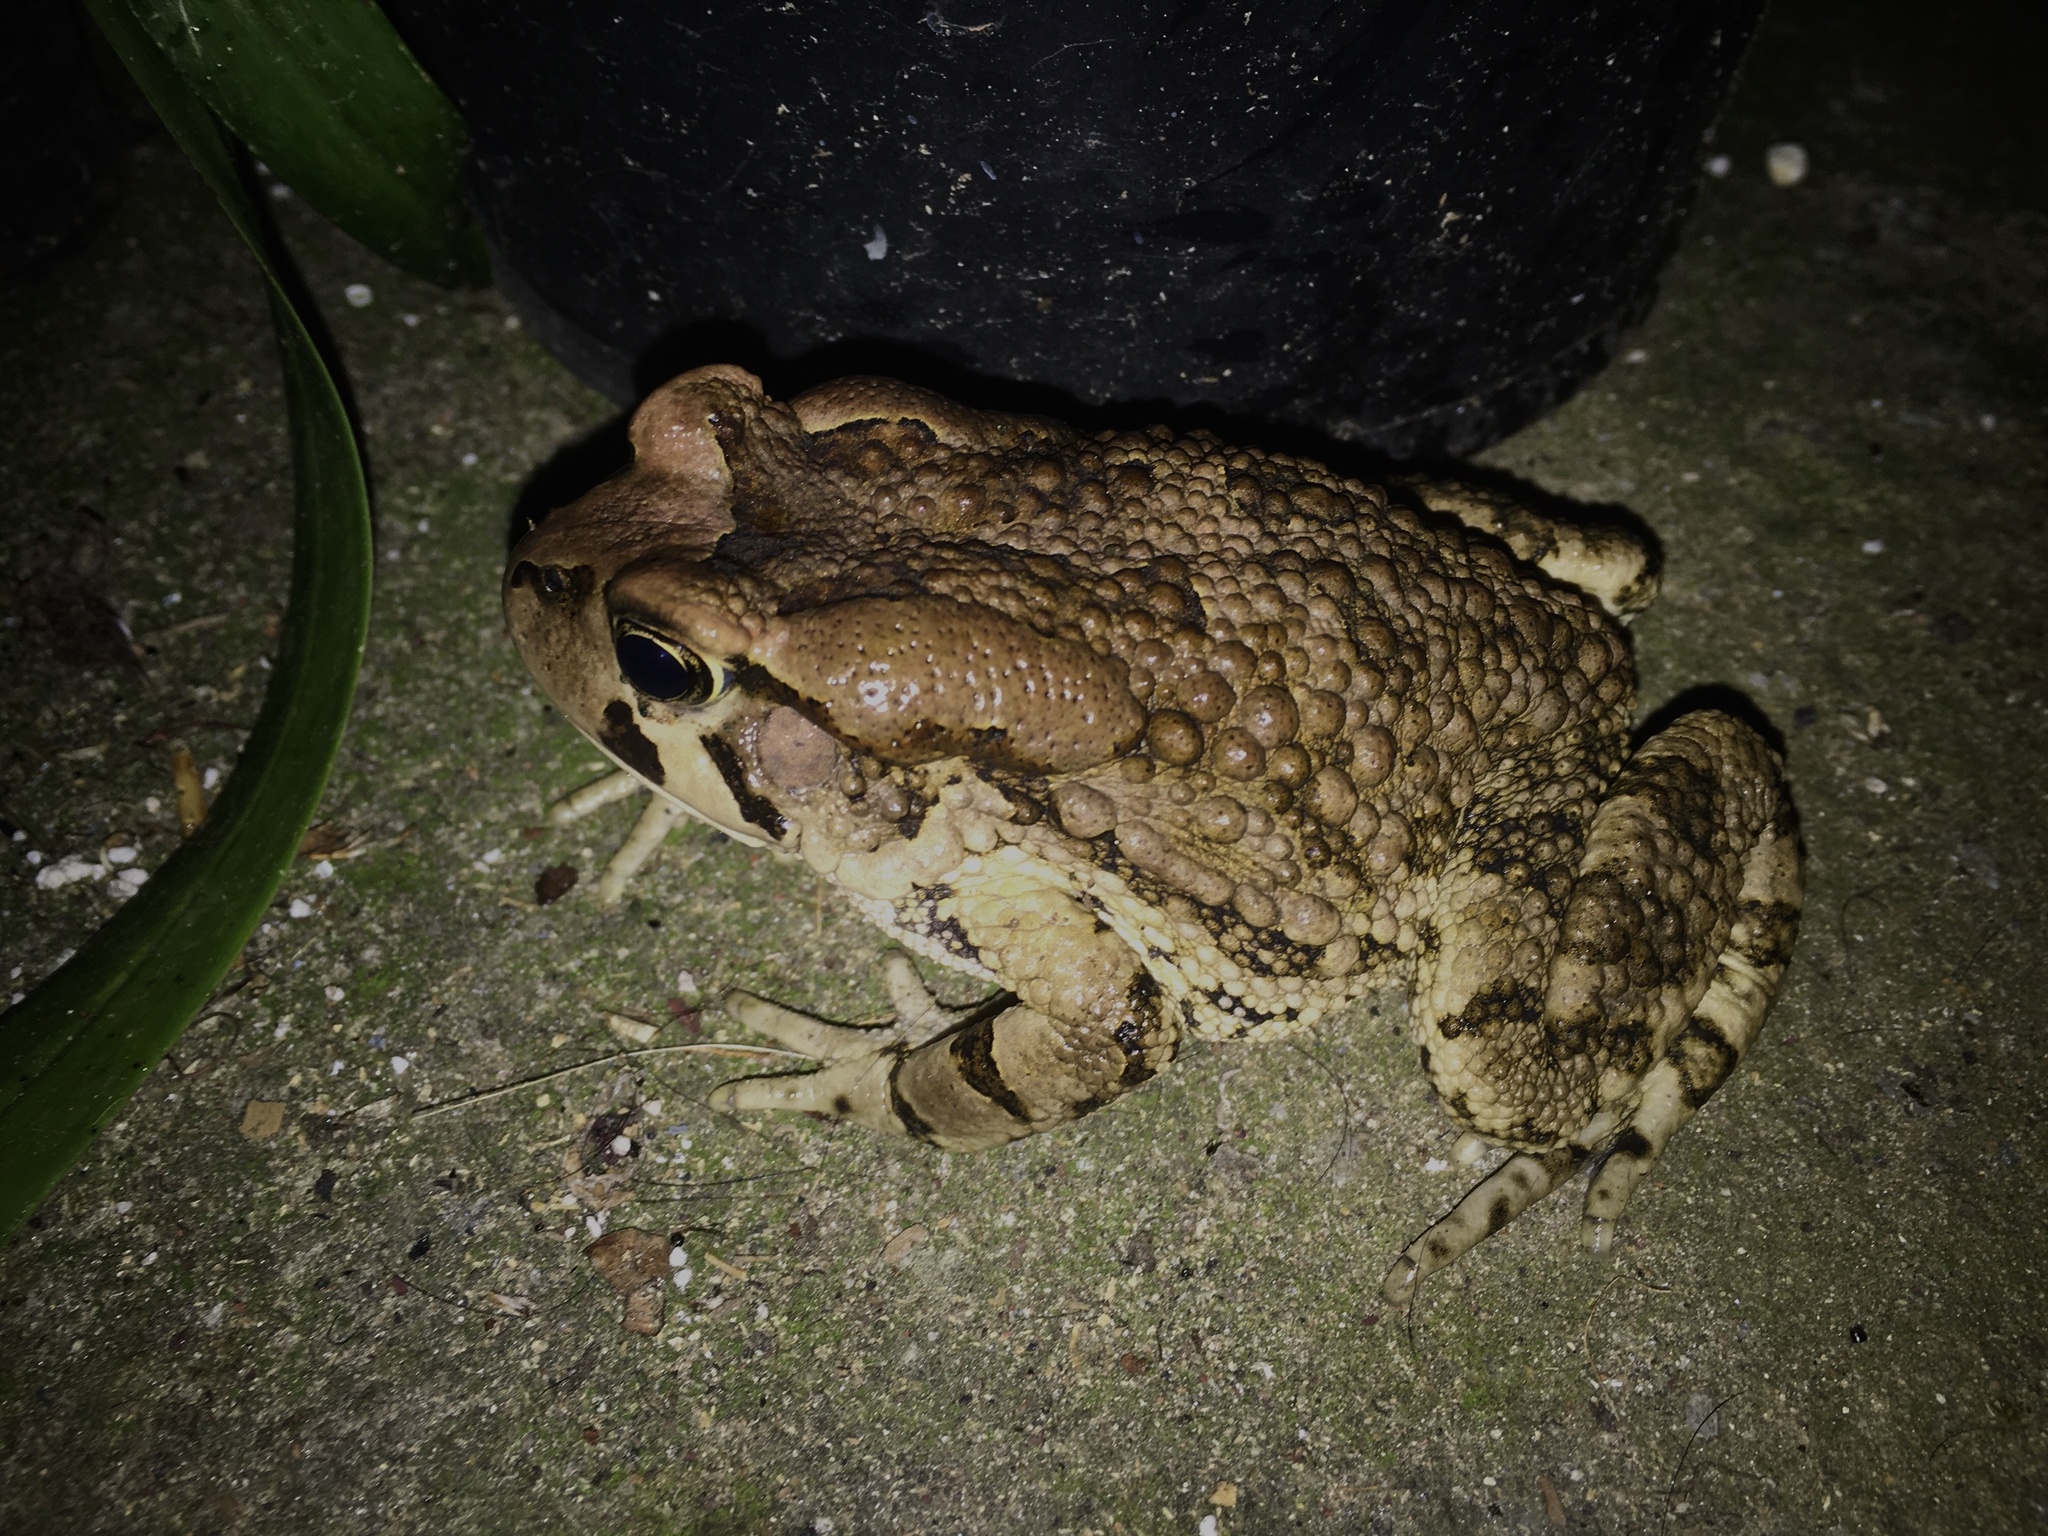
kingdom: Animalia
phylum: Chordata
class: Amphibia
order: Anura
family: Bufonidae
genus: Sclerophrys
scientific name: Sclerophrys capensis
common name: Ranger’s toad
